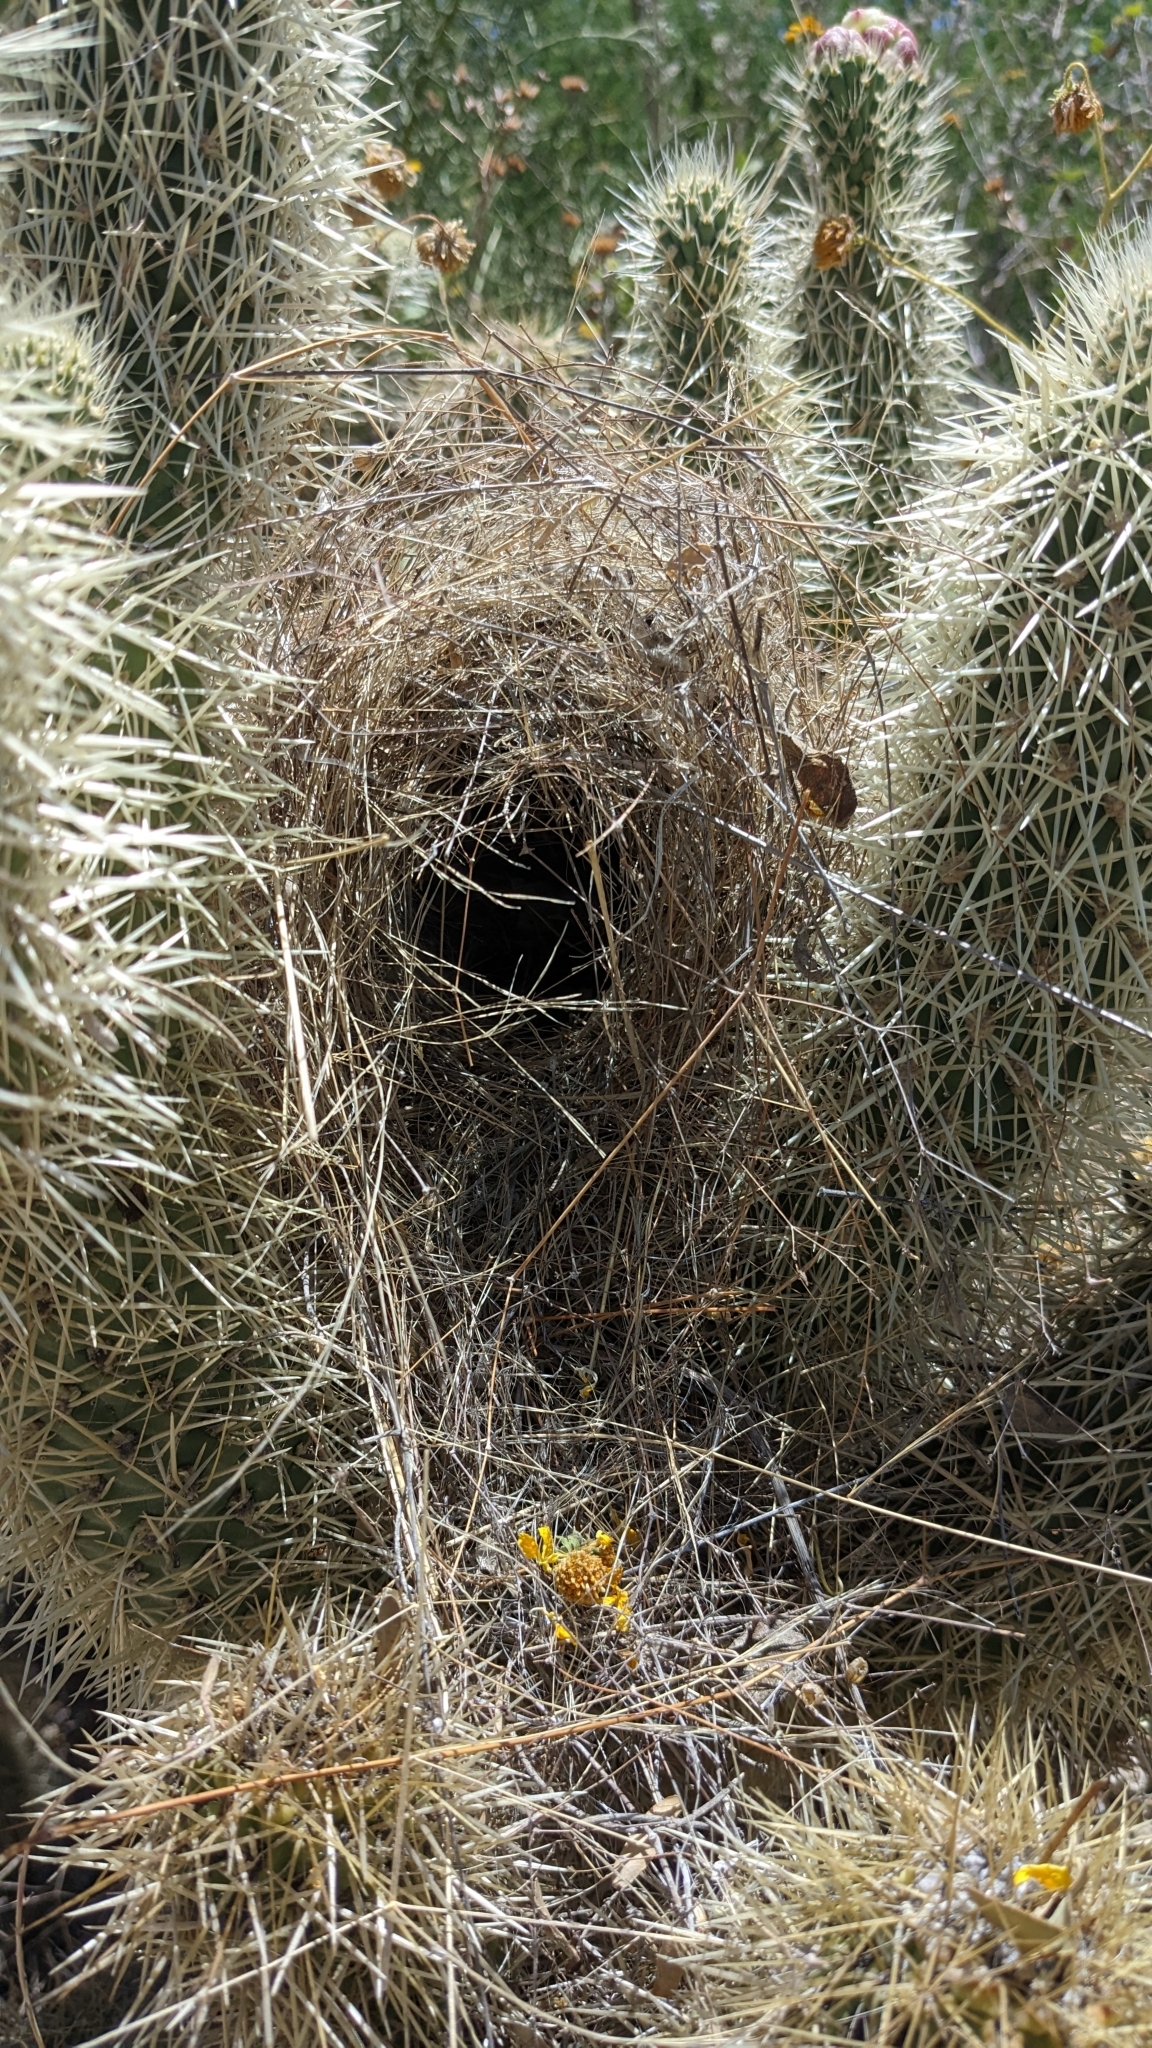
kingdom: Animalia
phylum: Chordata
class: Aves
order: Passeriformes
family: Troglodytidae
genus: Campylorhynchus
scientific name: Campylorhynchus brunneicapillus
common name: Cactus wren
